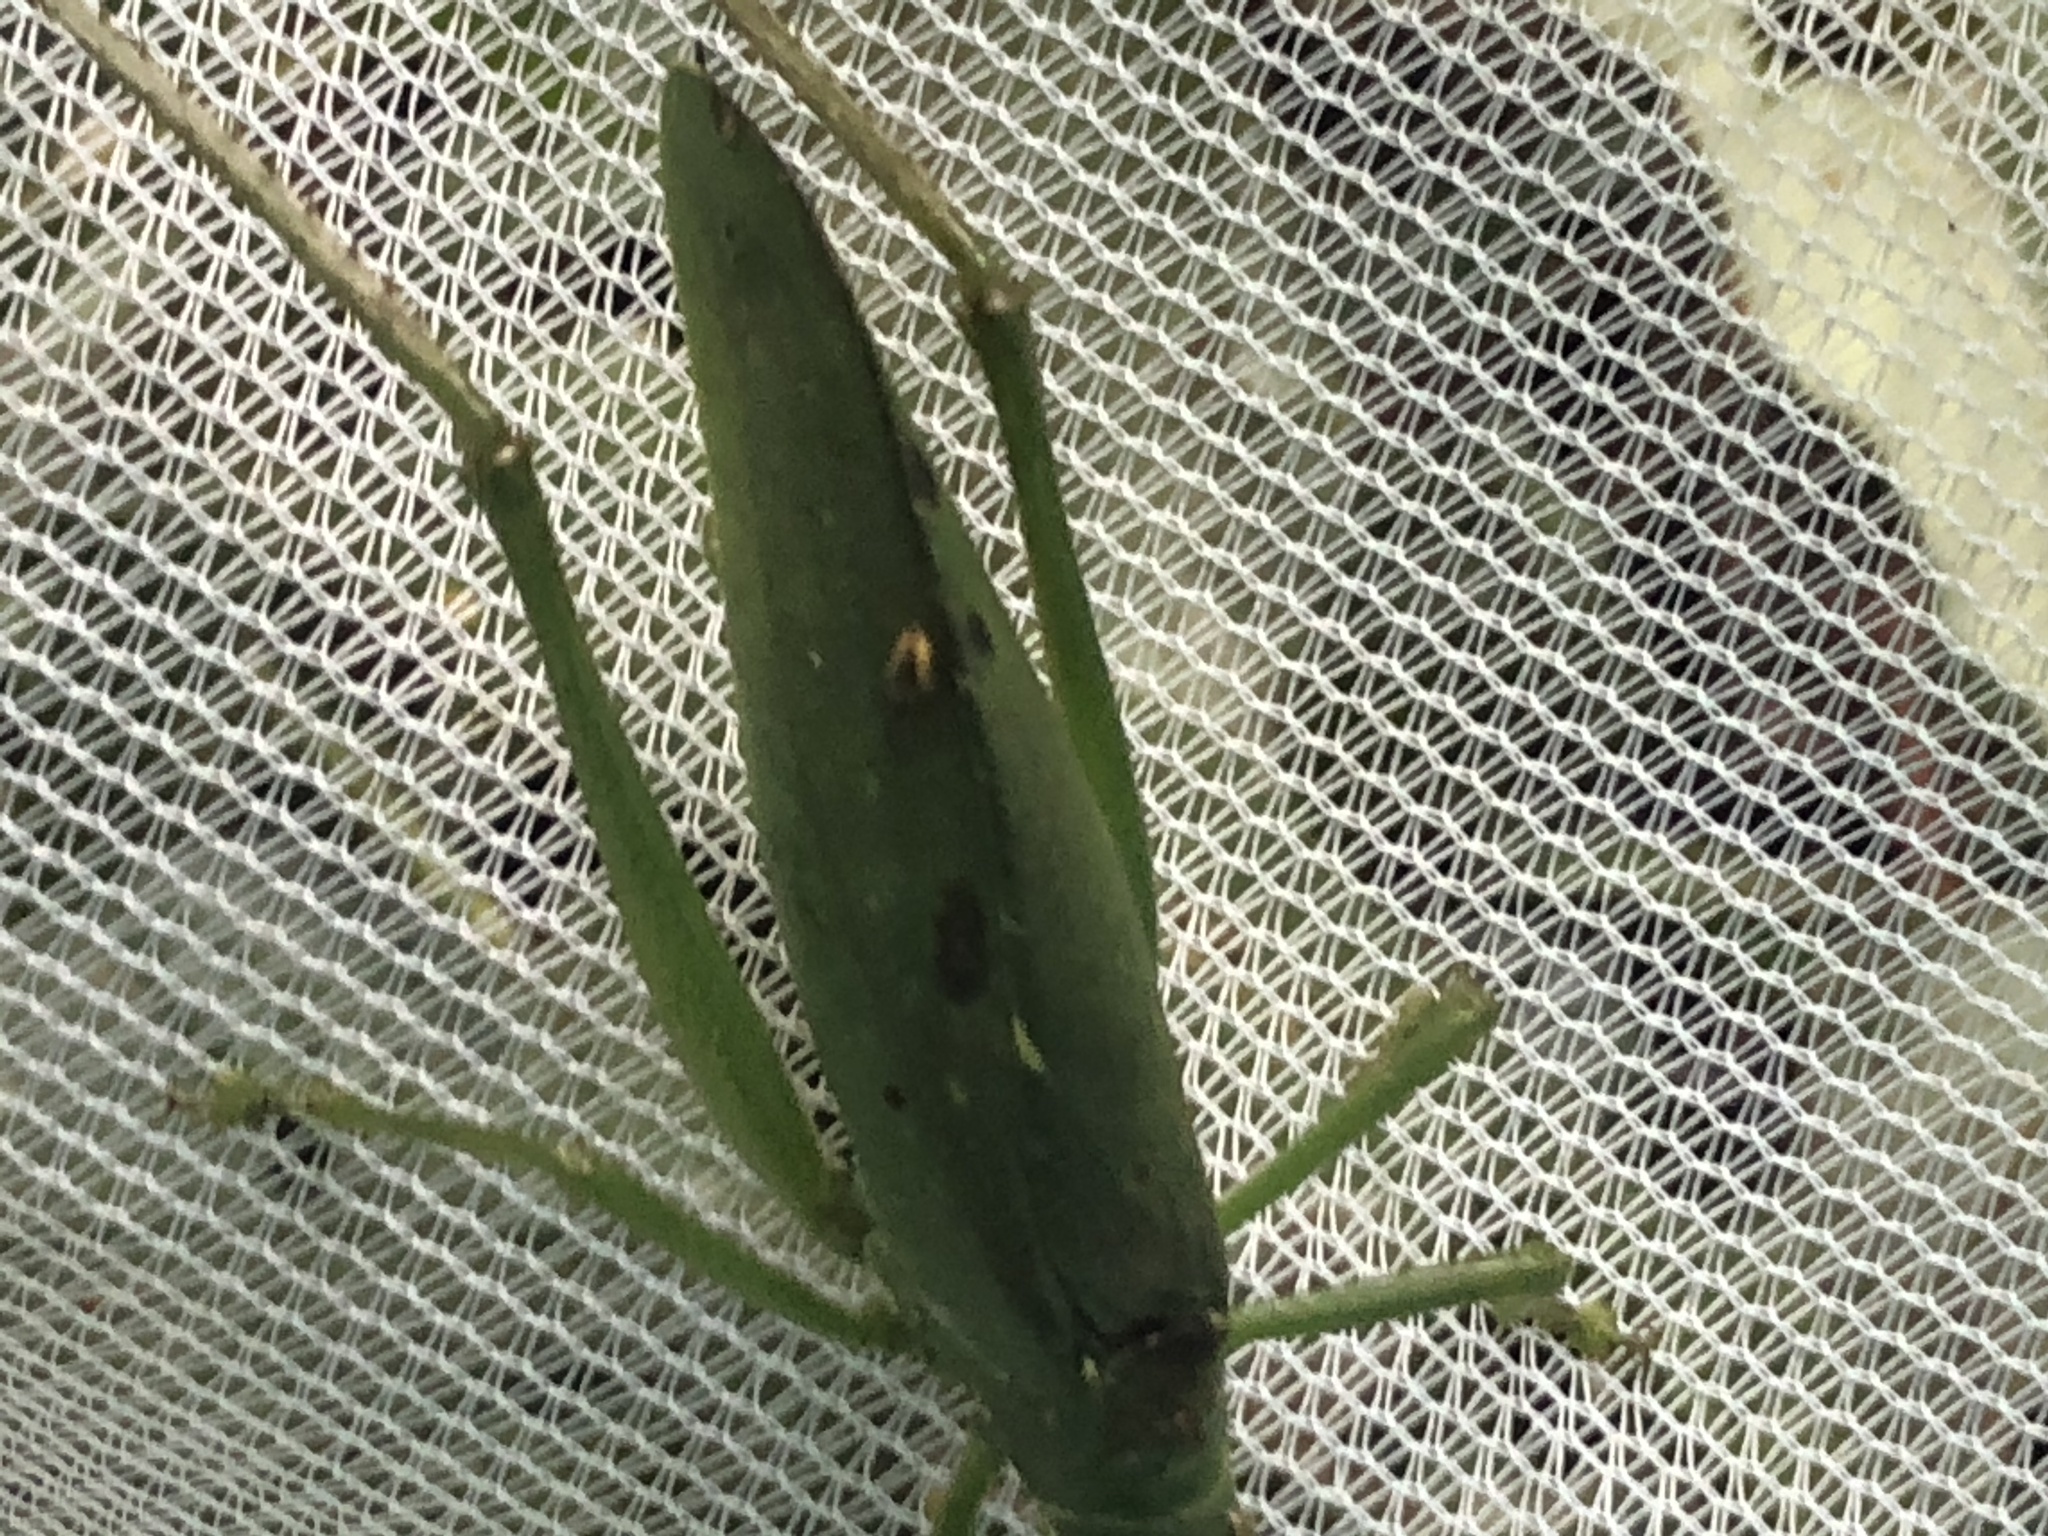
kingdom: Animalia
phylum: Arthropoda
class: Insecta
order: Orthoptera
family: Tettigoniidae
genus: Diophanes
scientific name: Diophanes salvifolius
